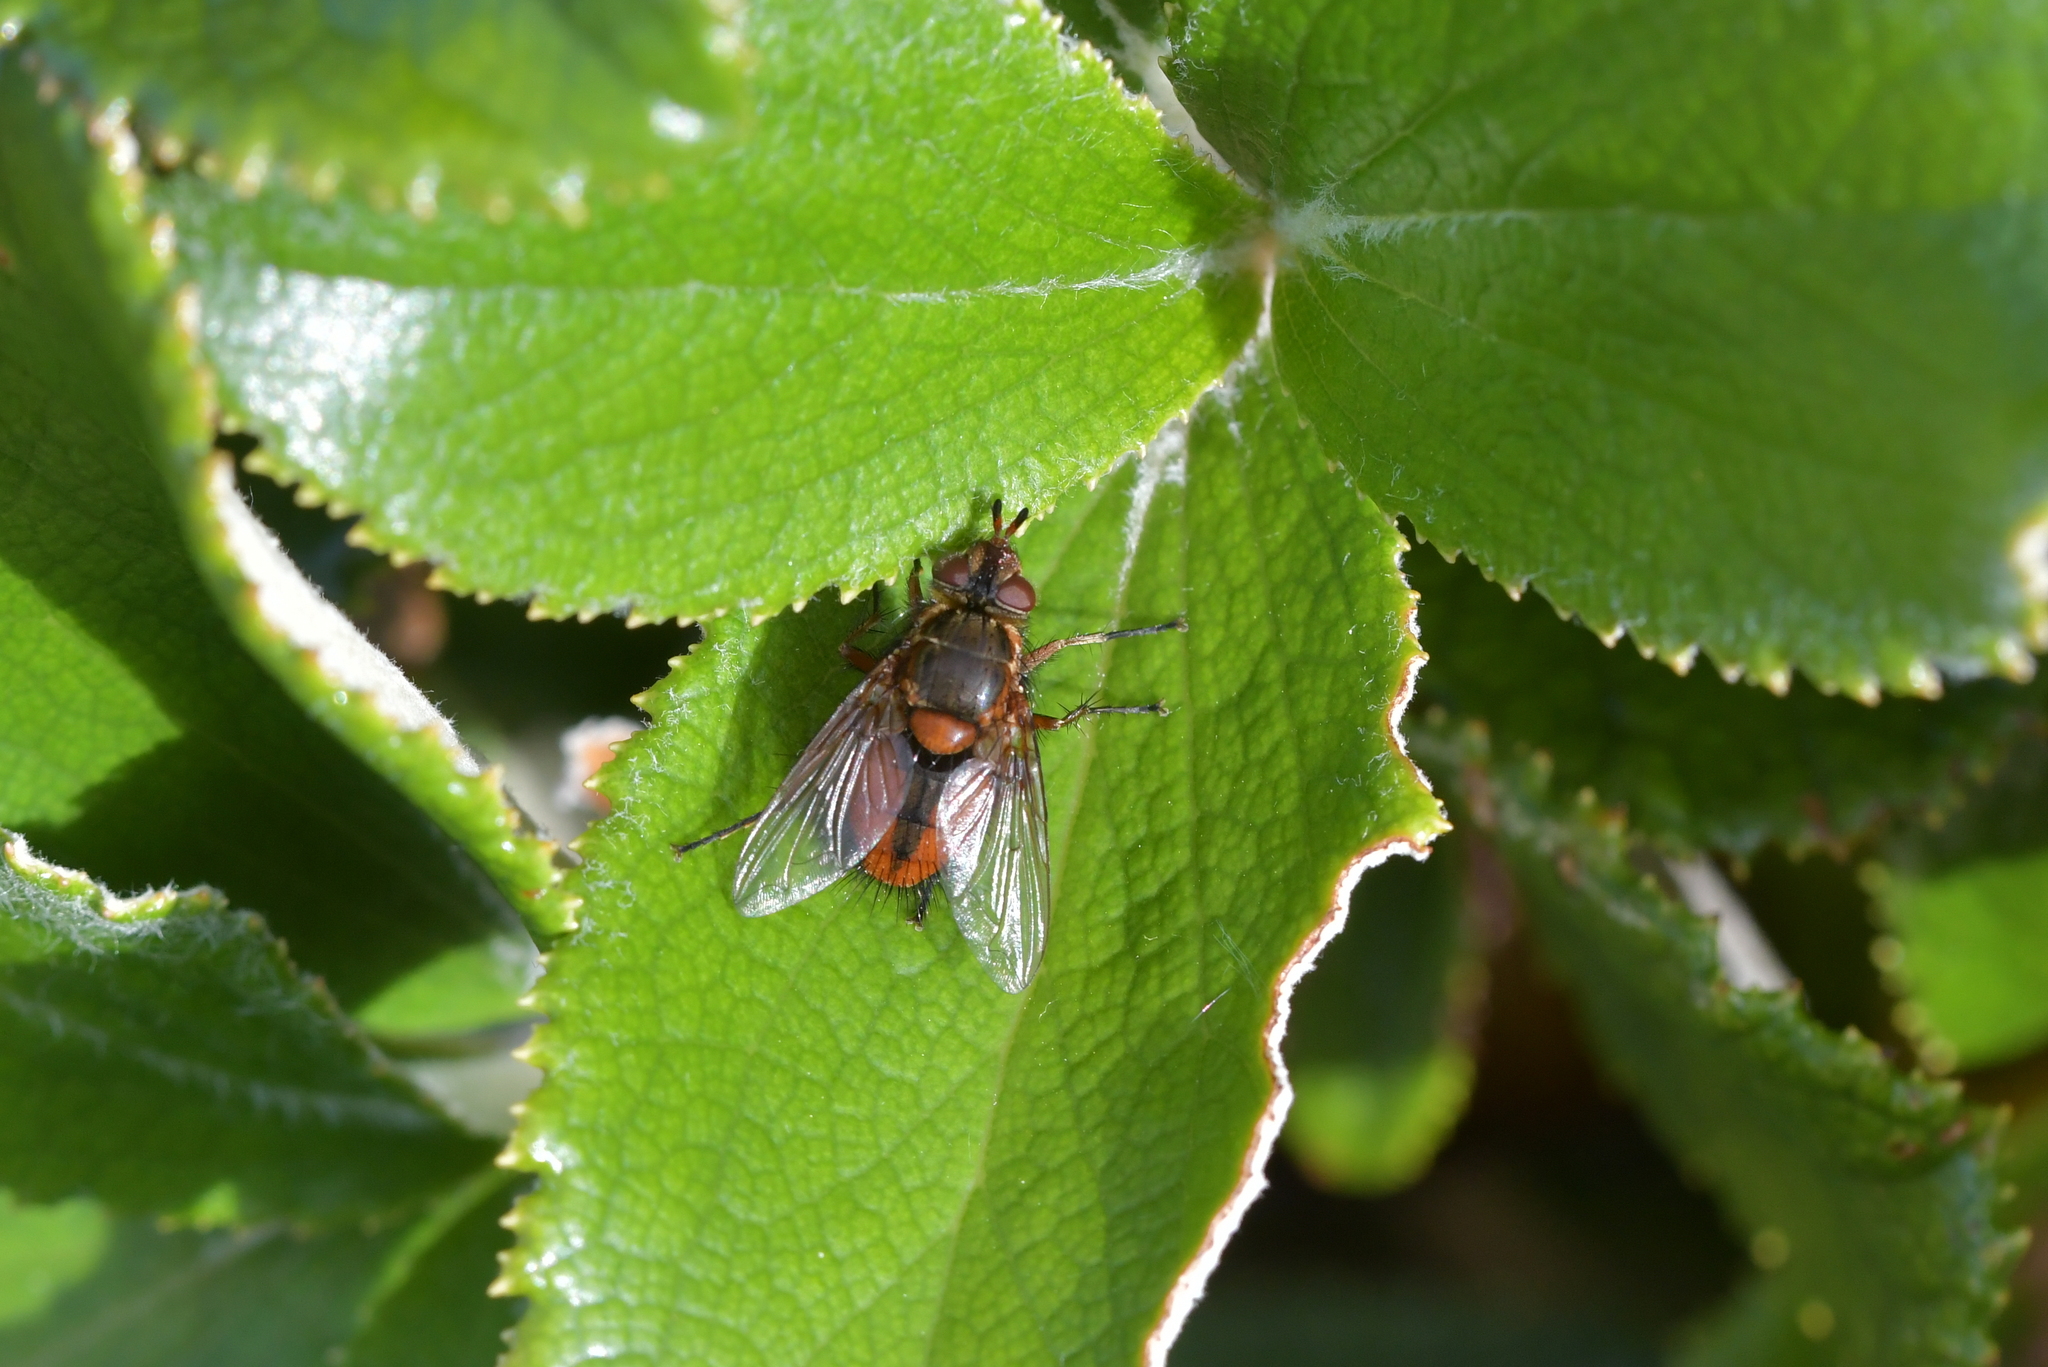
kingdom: Animalia
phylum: Arthropoda
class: Insecta
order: Diptera
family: Tachinidae
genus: Chaetophthalmus
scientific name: Chaetophthalmus bicolor
